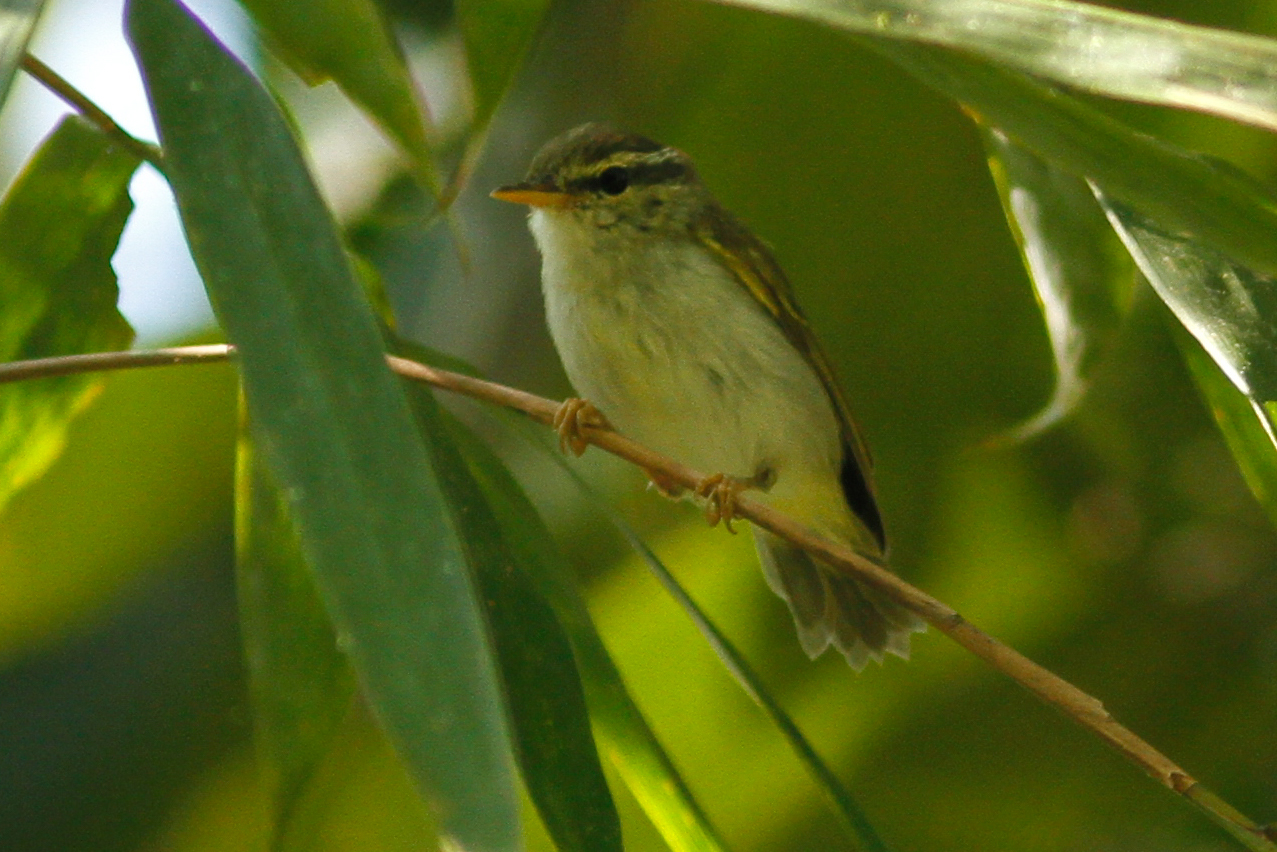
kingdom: Animalia
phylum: Chordata
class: Aves
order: Passeriformes
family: Phylloscopidae
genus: Phylloscopus
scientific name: Phylloscopus coronatus
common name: Eastern crowned warbler
